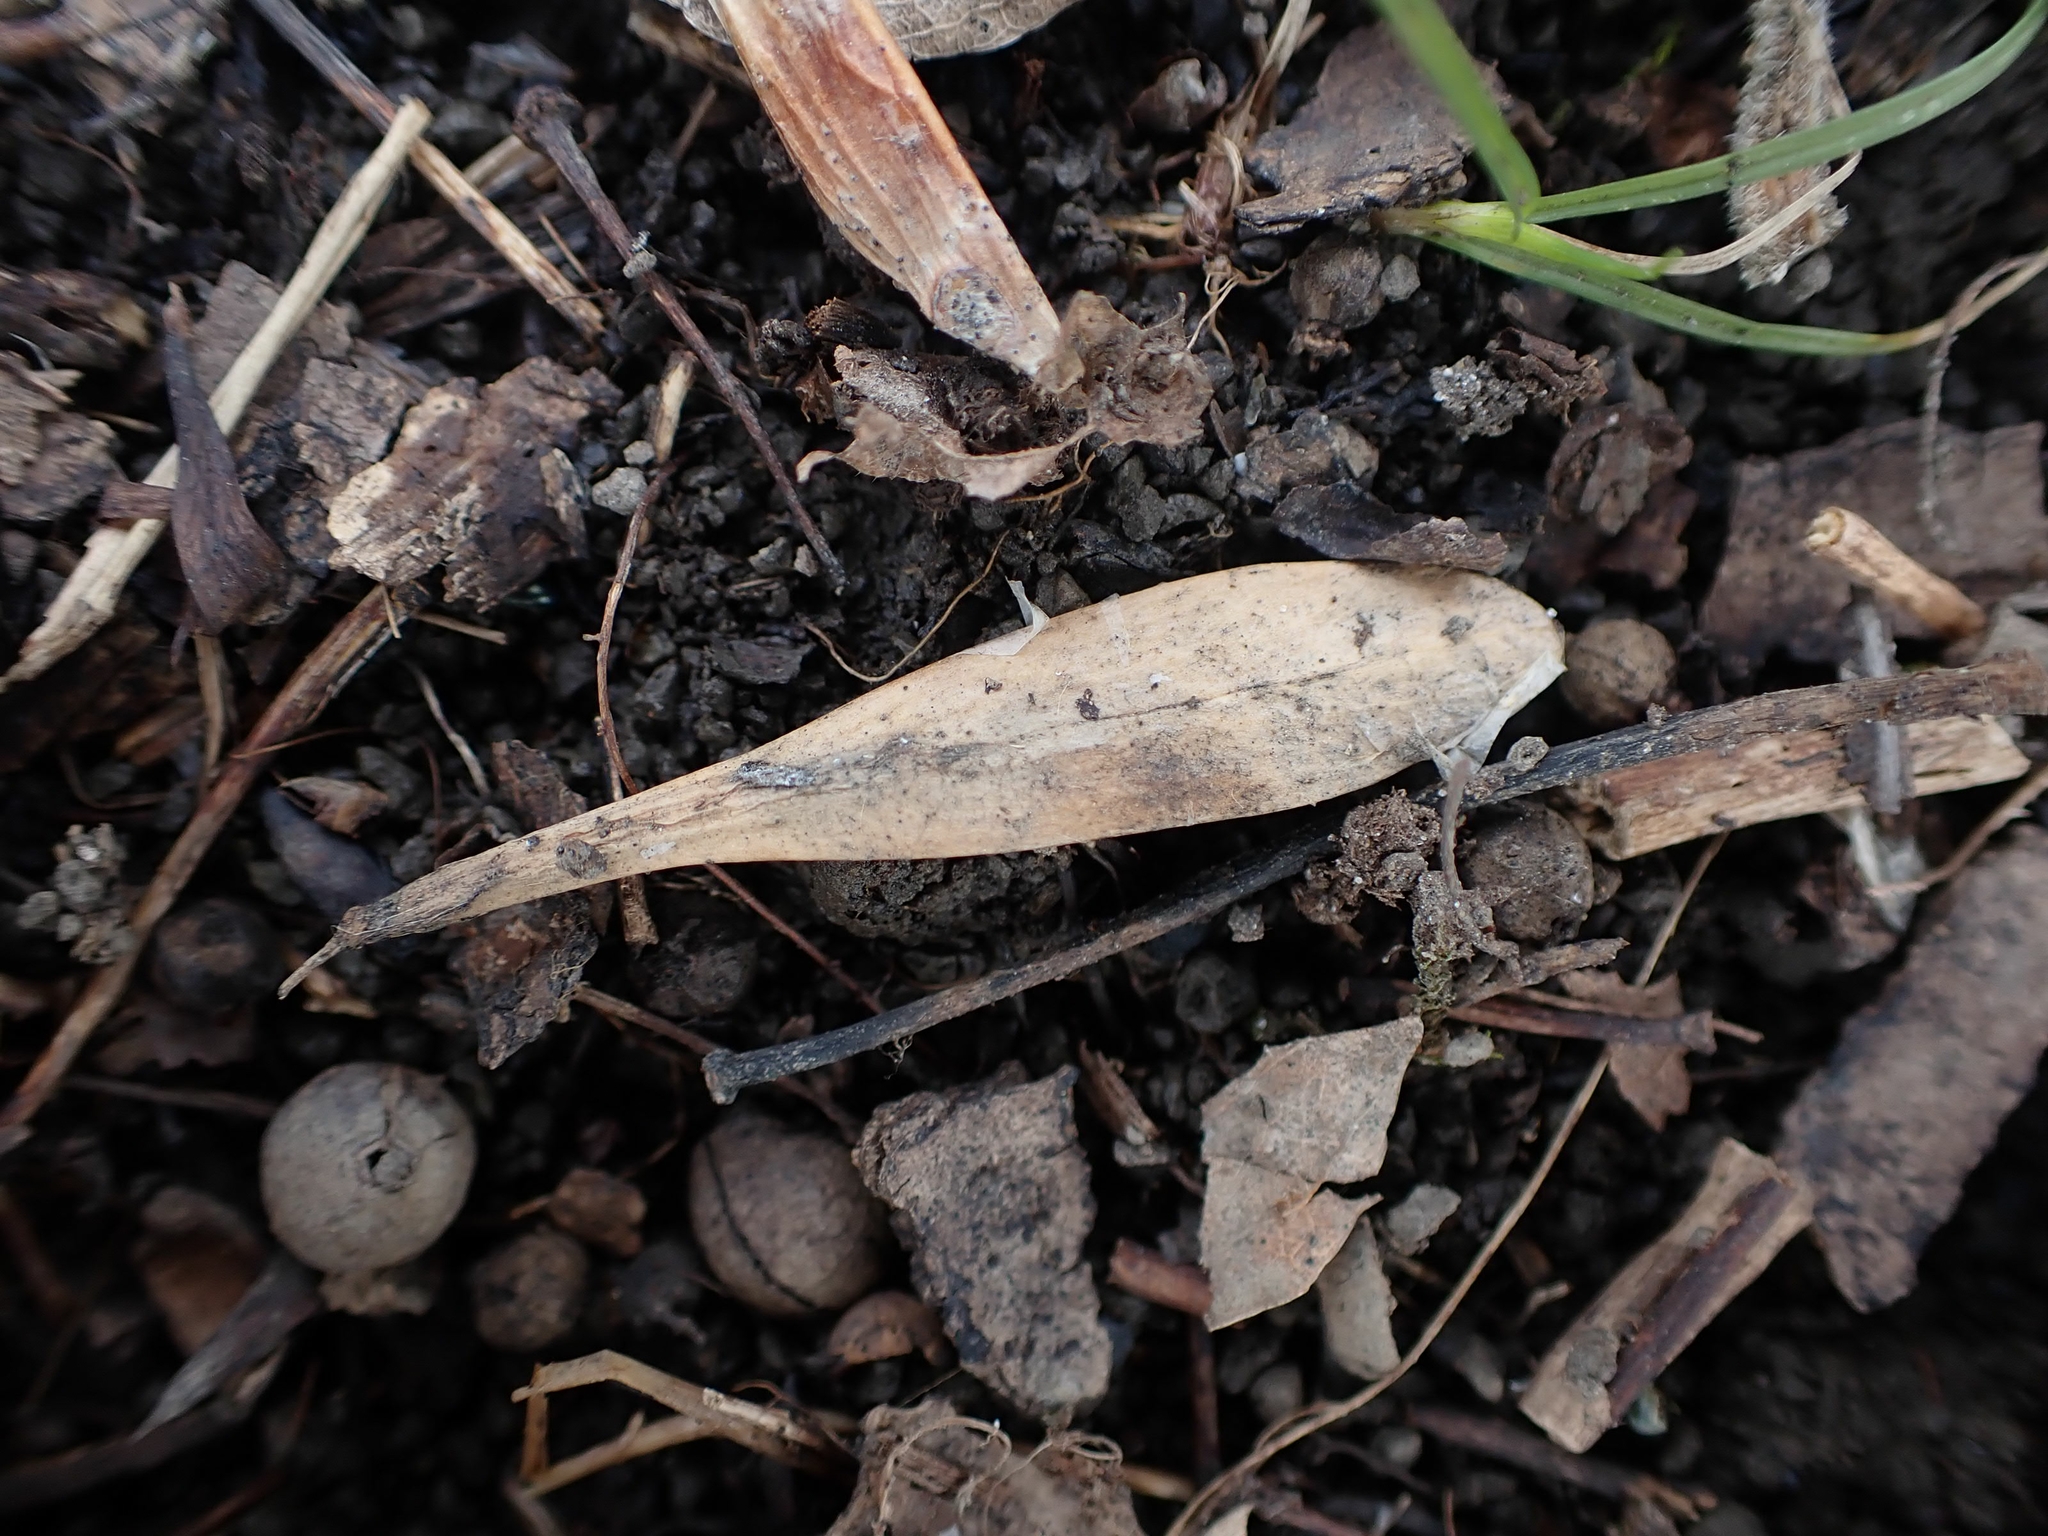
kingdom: Plantae
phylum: Tracheophyta
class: Magnoliopsida
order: Lamiales
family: Oleaceae
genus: Fraxinus
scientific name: Fraxinus pennsylvanica
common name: Green ash
